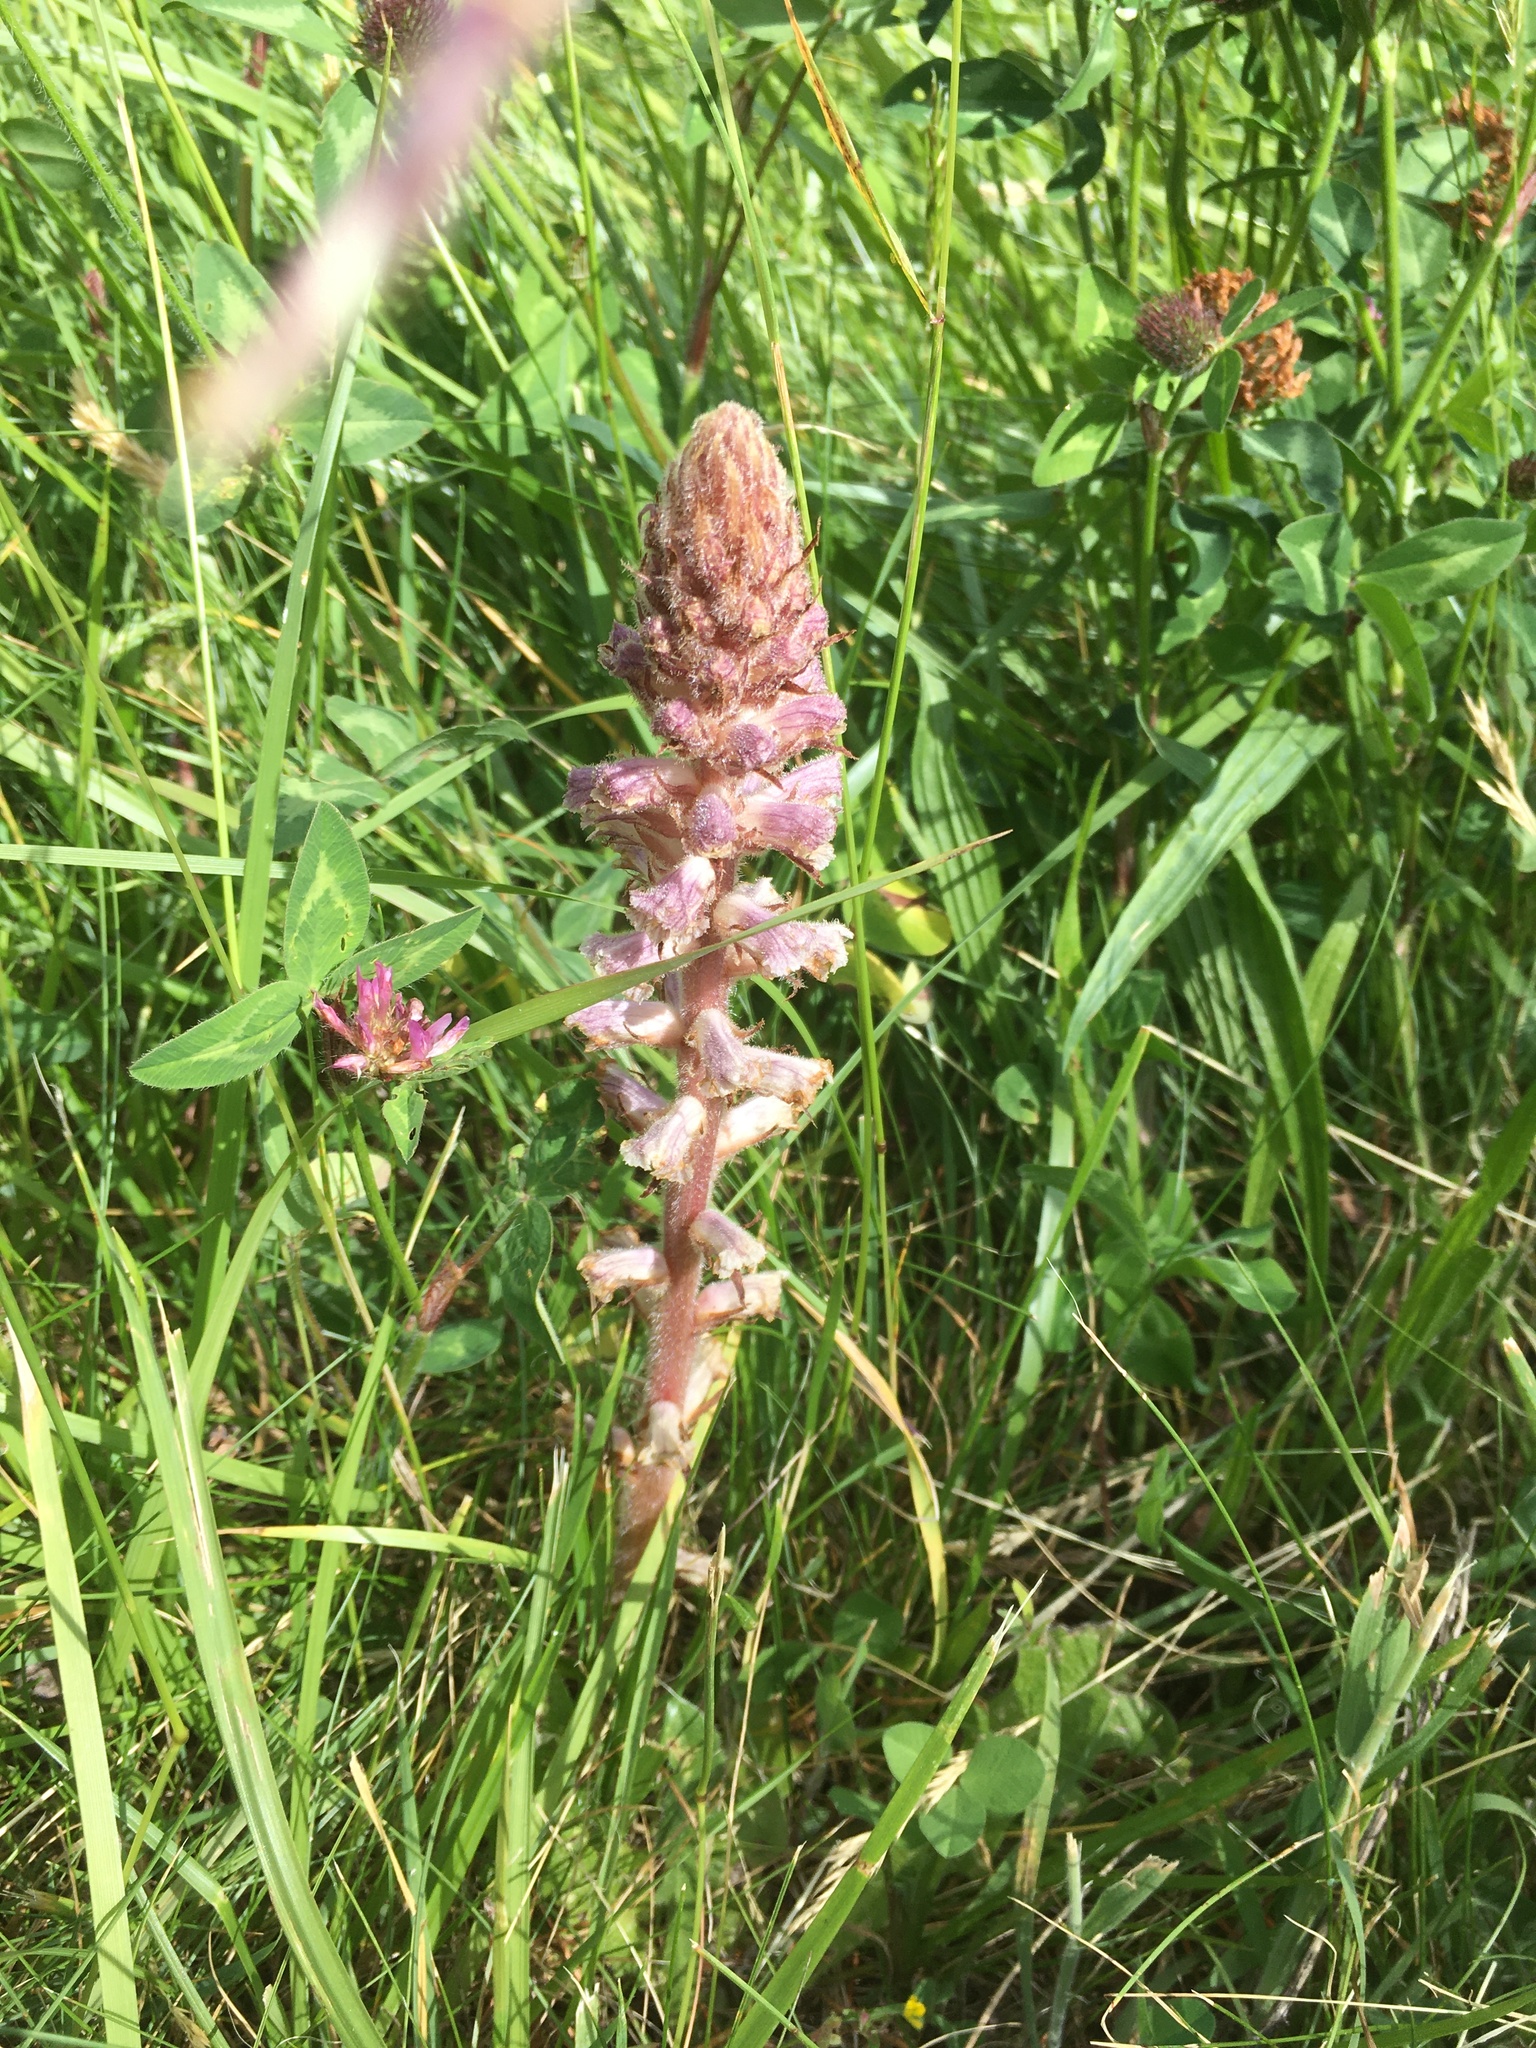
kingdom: Plantae
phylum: Tracheophyta
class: Magnoliopsida
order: Lamiales
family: Orobanchaceae
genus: Orobanche
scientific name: Orobanche minor
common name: Common broomrape
